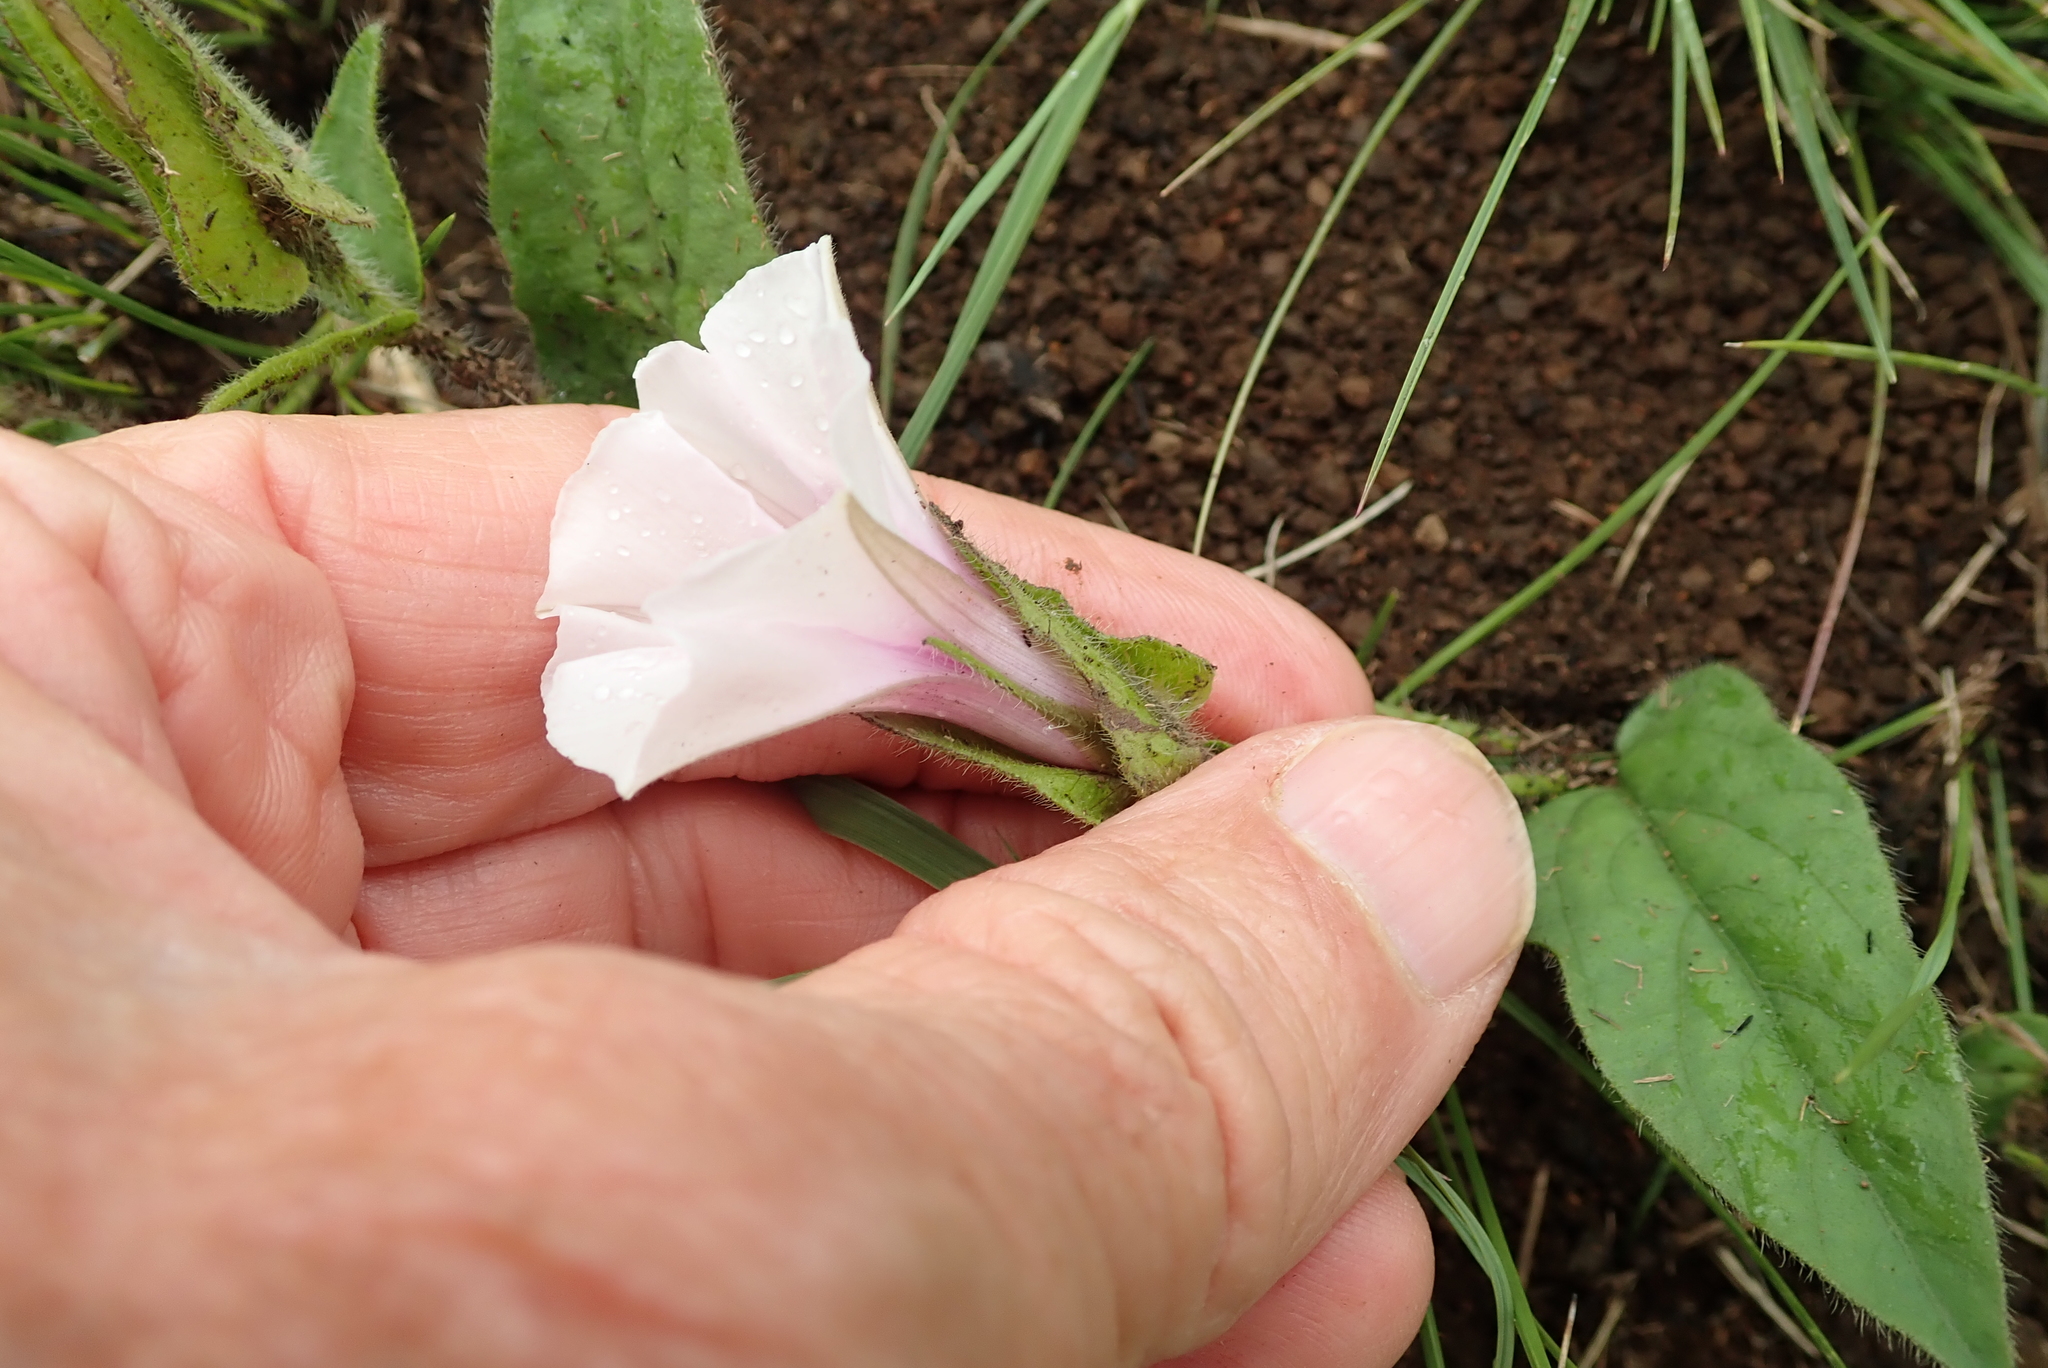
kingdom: Plantae
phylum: Tracheophyta
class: Magnoliopsida
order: Solanales
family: Convolvulaceae
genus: Ipomoea
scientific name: Ipomoea crassipes
